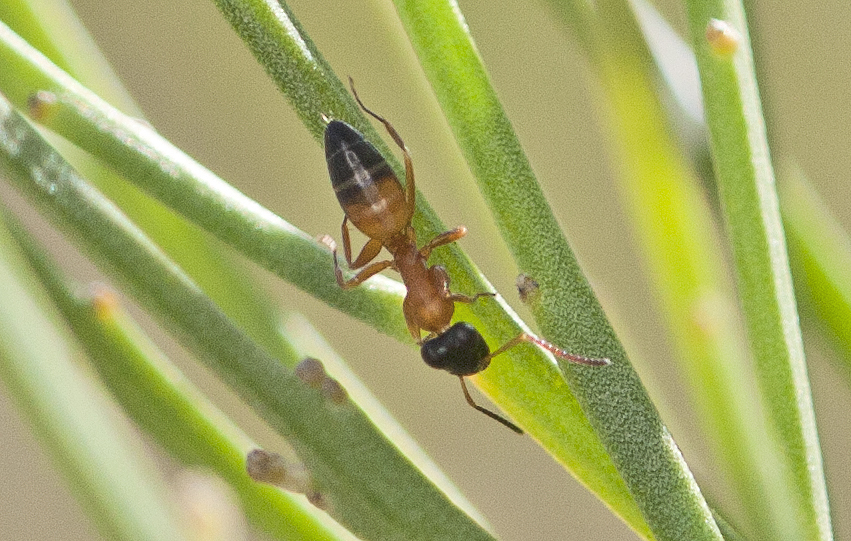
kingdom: Animalia
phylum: Arthropoda
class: Insecta
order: Hymenoptera
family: Formicidae
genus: Opisthopsis
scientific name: Opisthopsis rufithorax
